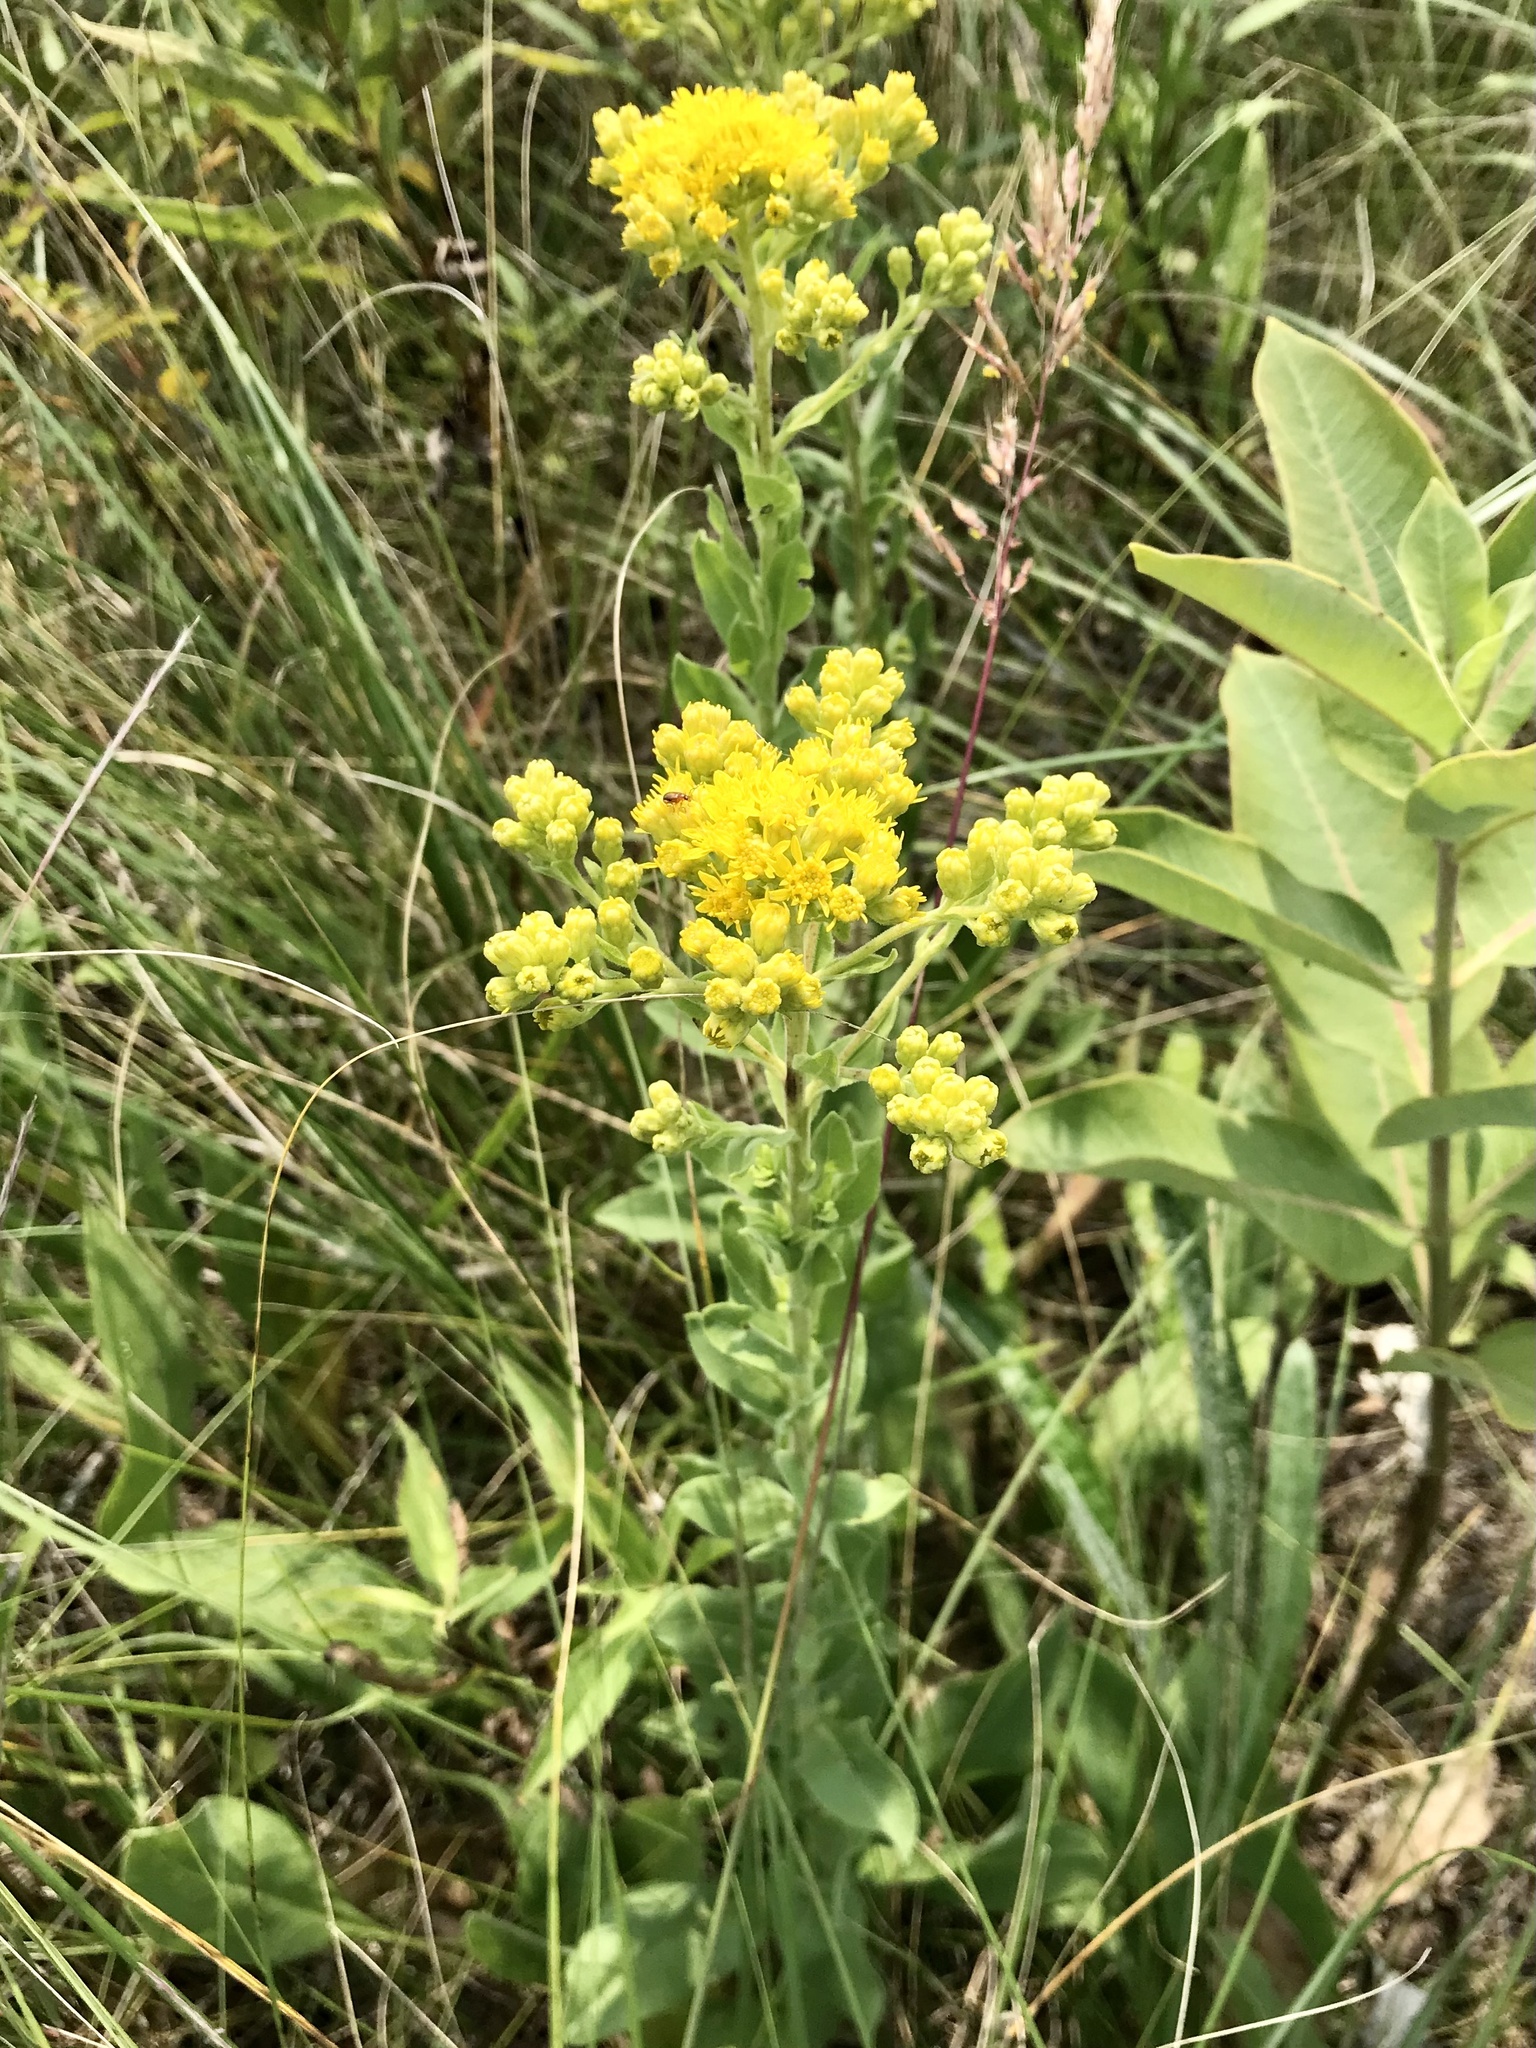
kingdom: Plantae
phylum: Tracheophyta
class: Magnoliopsida
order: Asterales
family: Asteraceae
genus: Solidago
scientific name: Solidago rigida
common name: Rigid goldenrod
